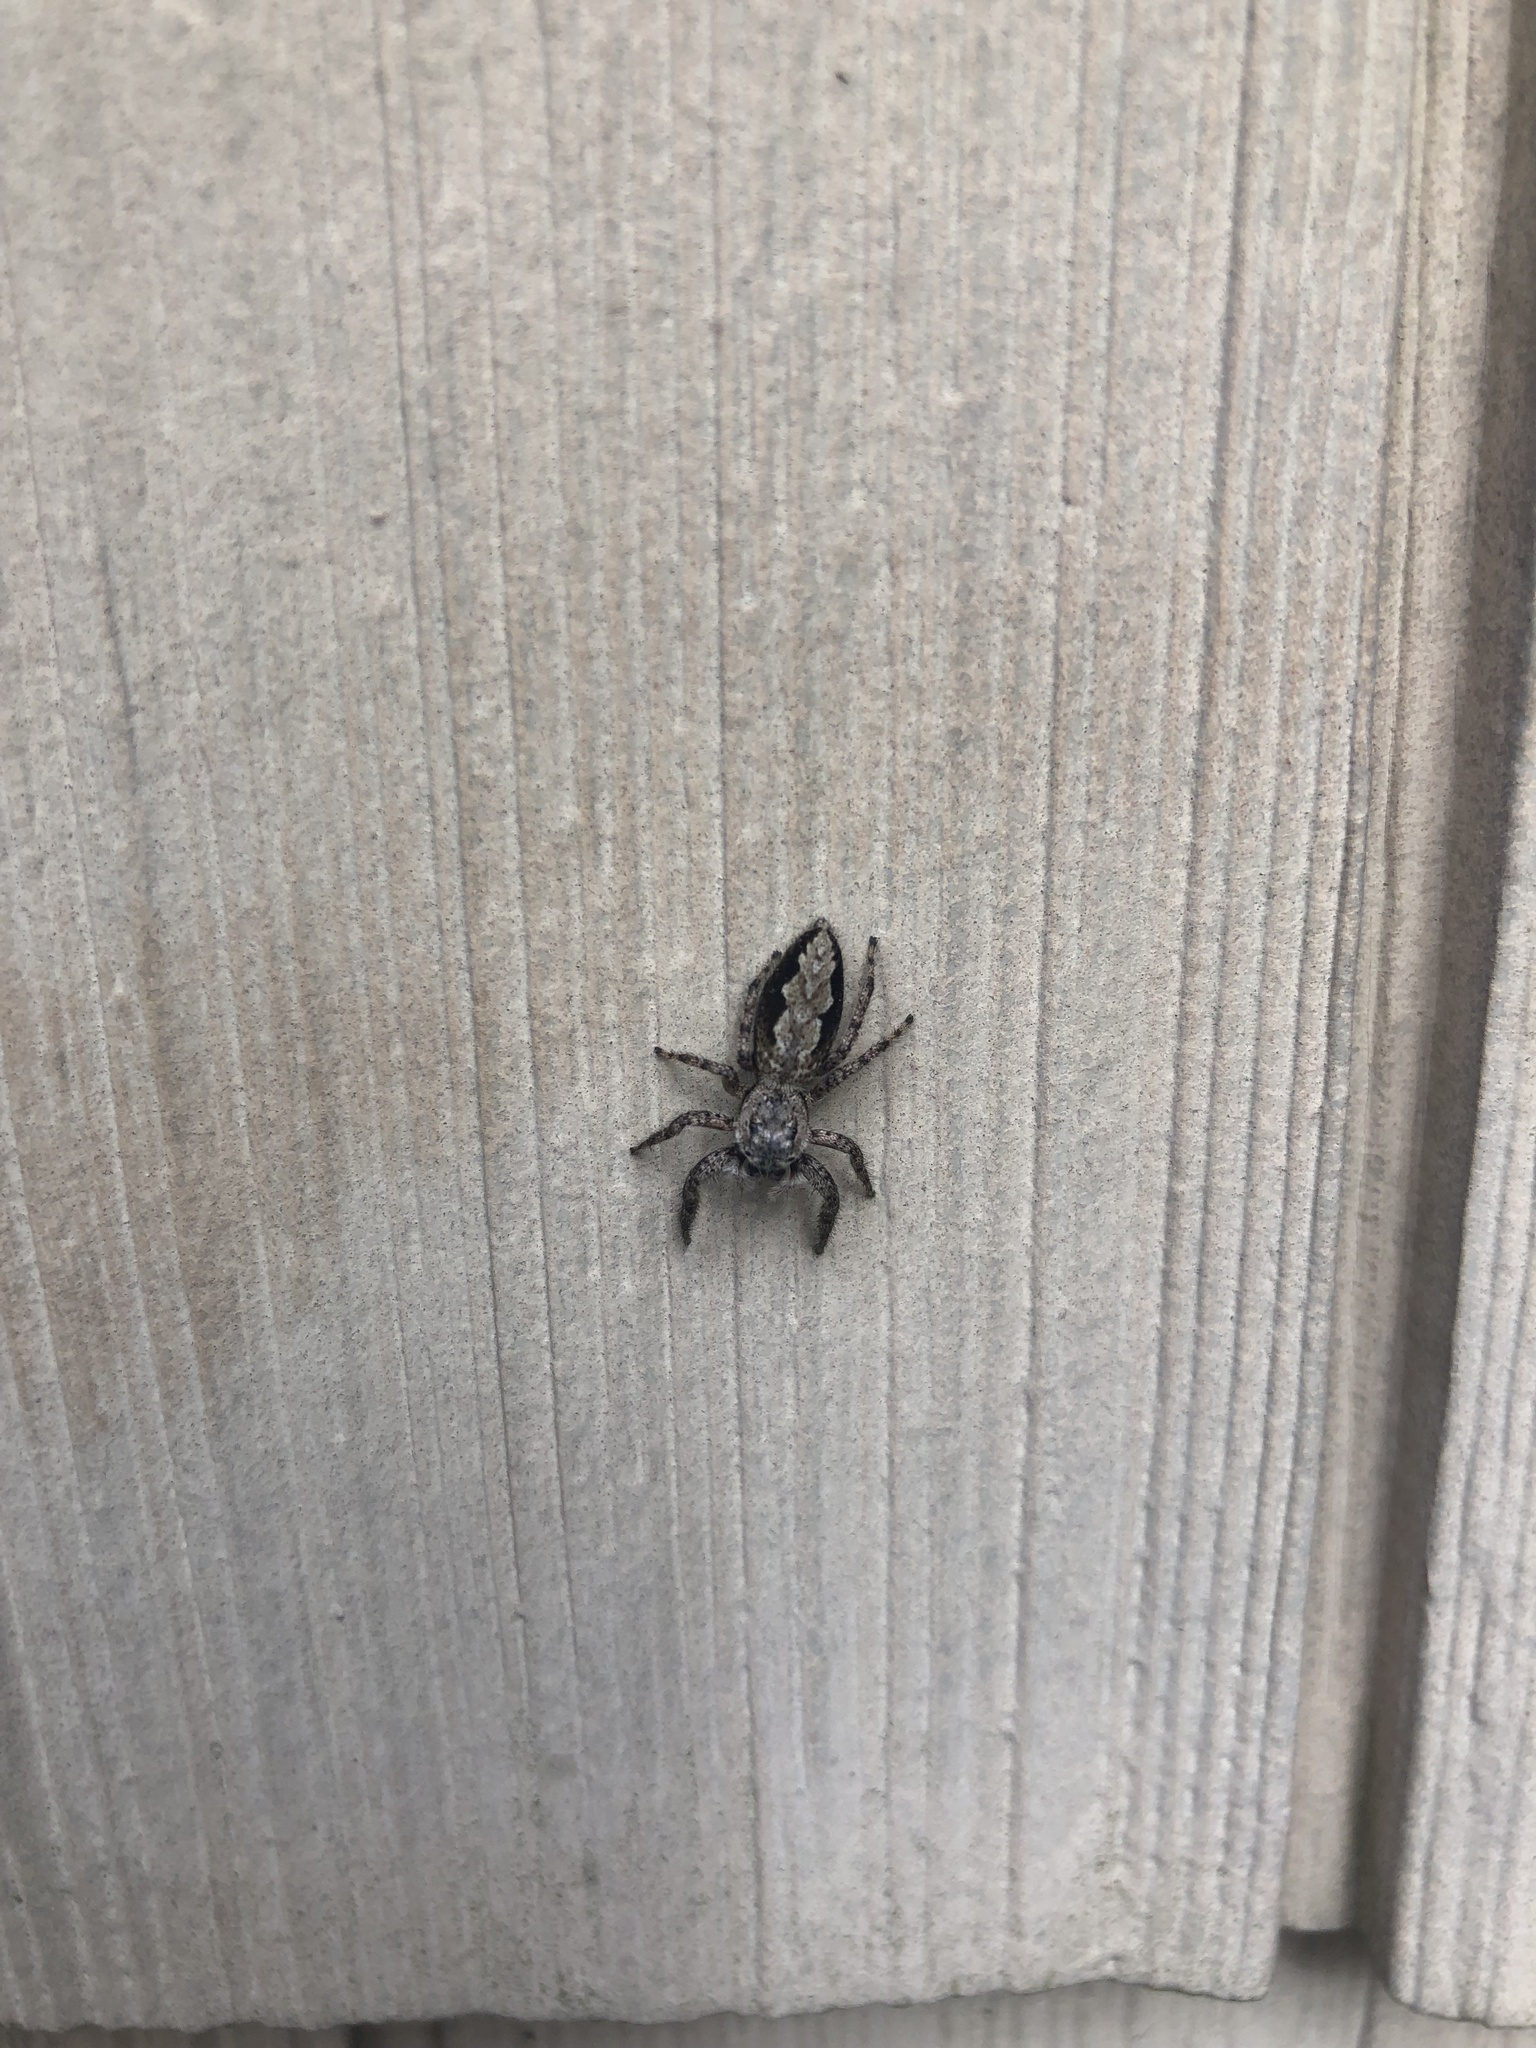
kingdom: Animalia
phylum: Arthropoda
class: Arachnida
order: Araneae
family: Salticidae
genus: Platycryptus
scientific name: Platycryptus undatus
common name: Tan jumping spider
